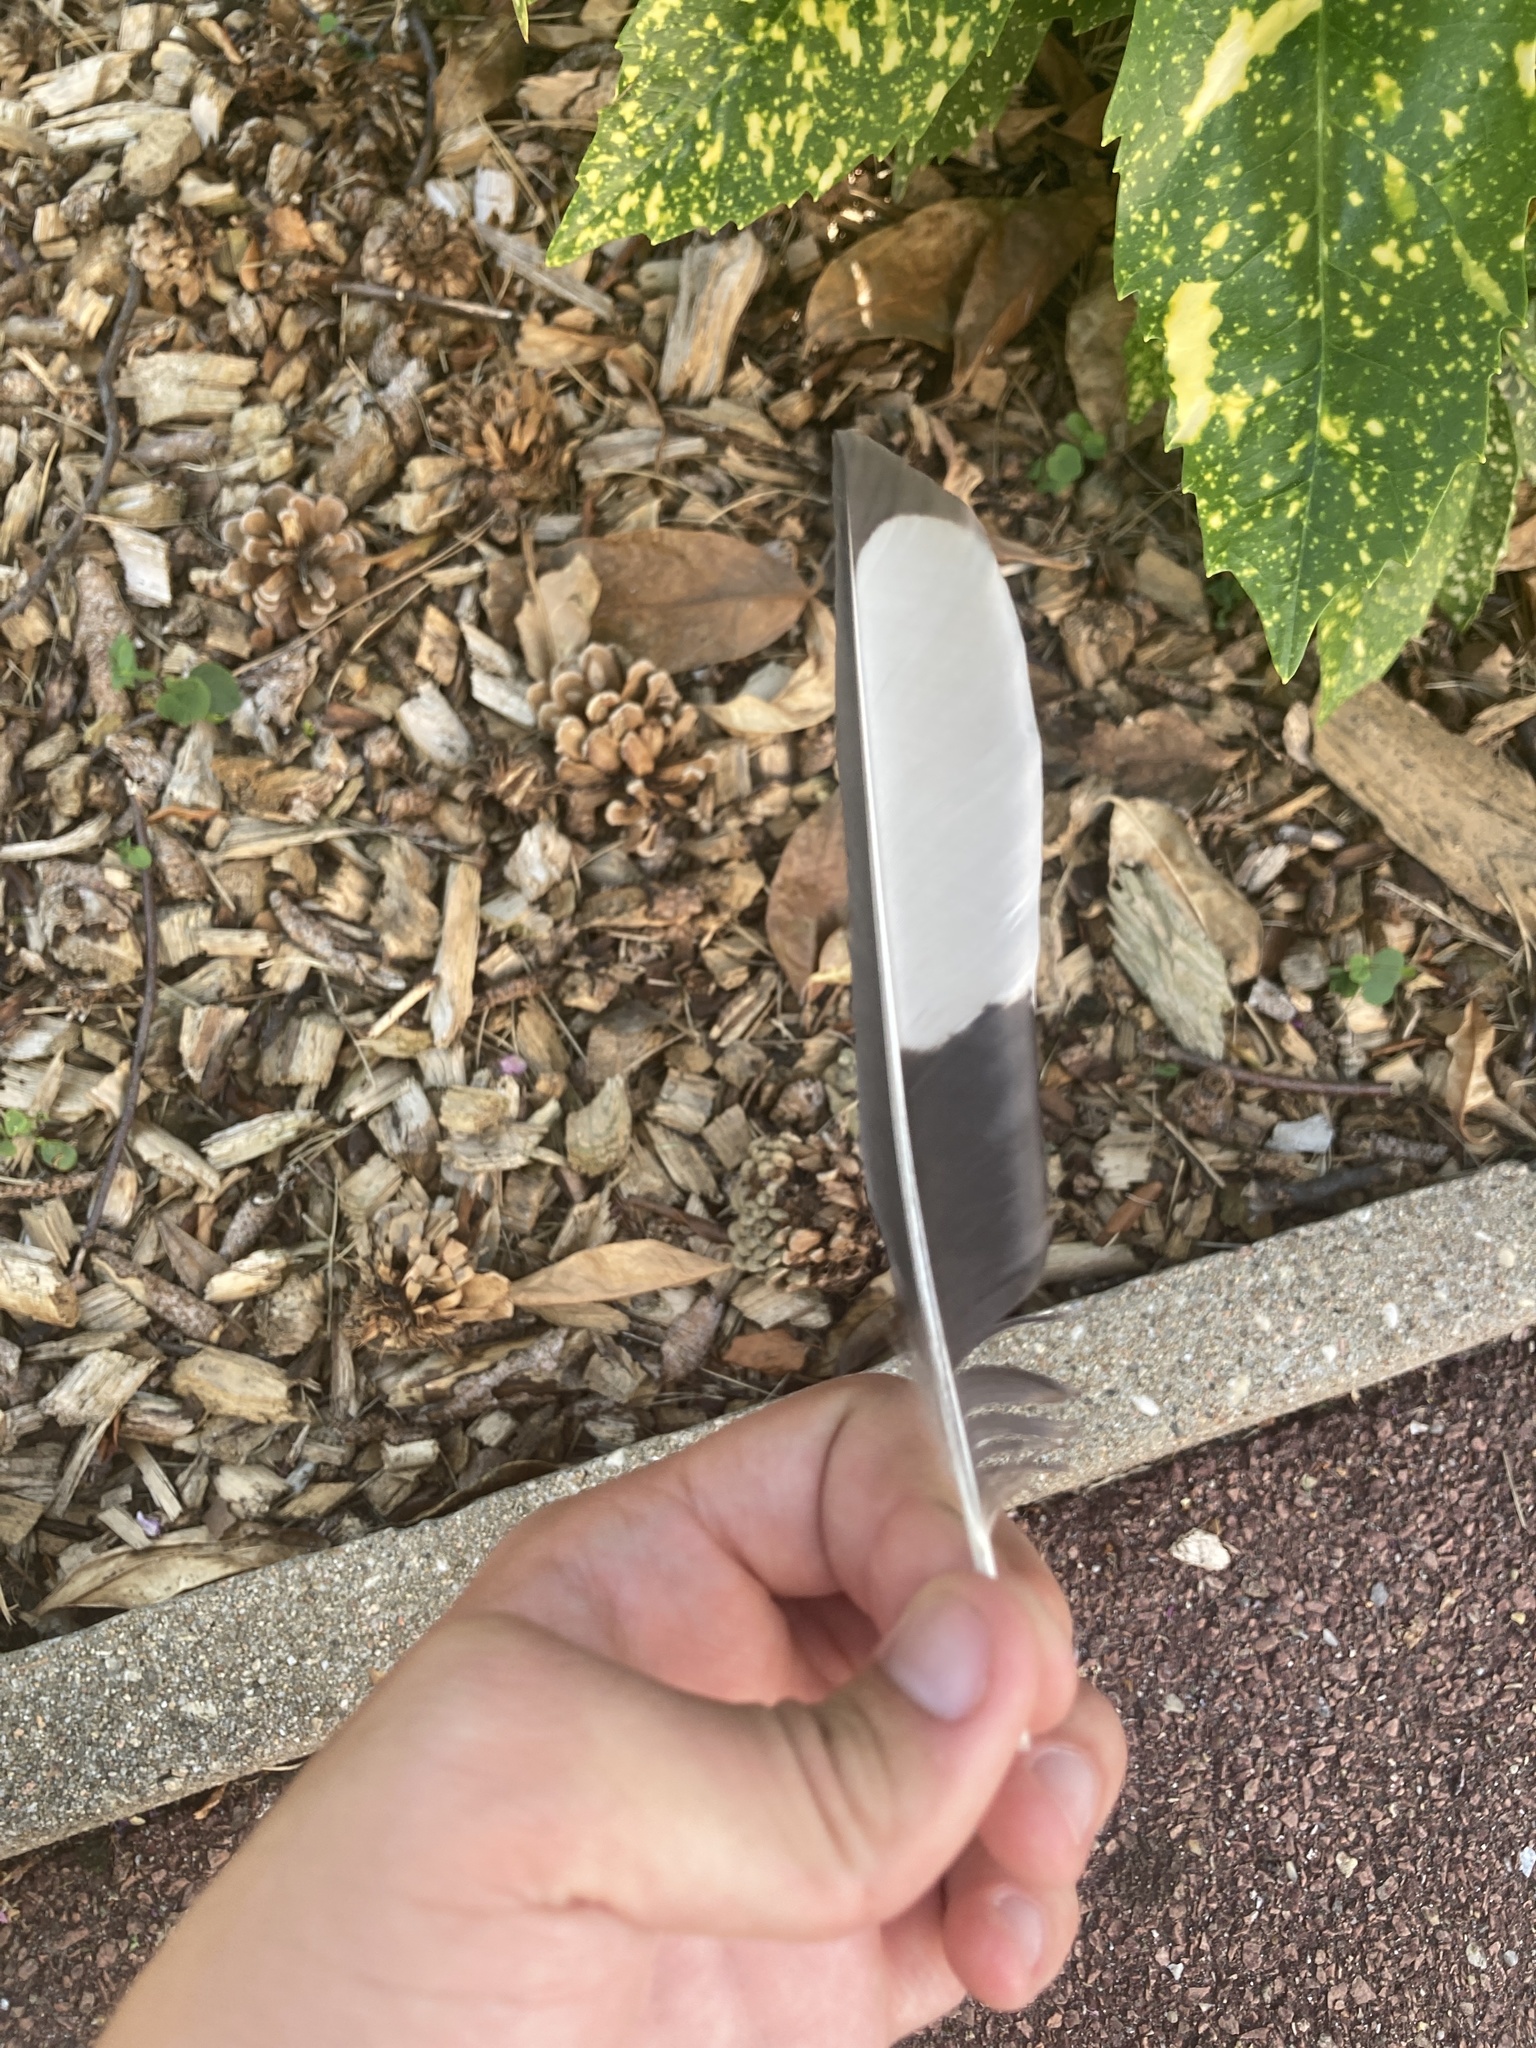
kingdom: Animalia
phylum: Chordata
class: Aves
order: Passeriformes
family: Corvidae
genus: Pica
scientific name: Pica pica
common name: Eurasian magpie
